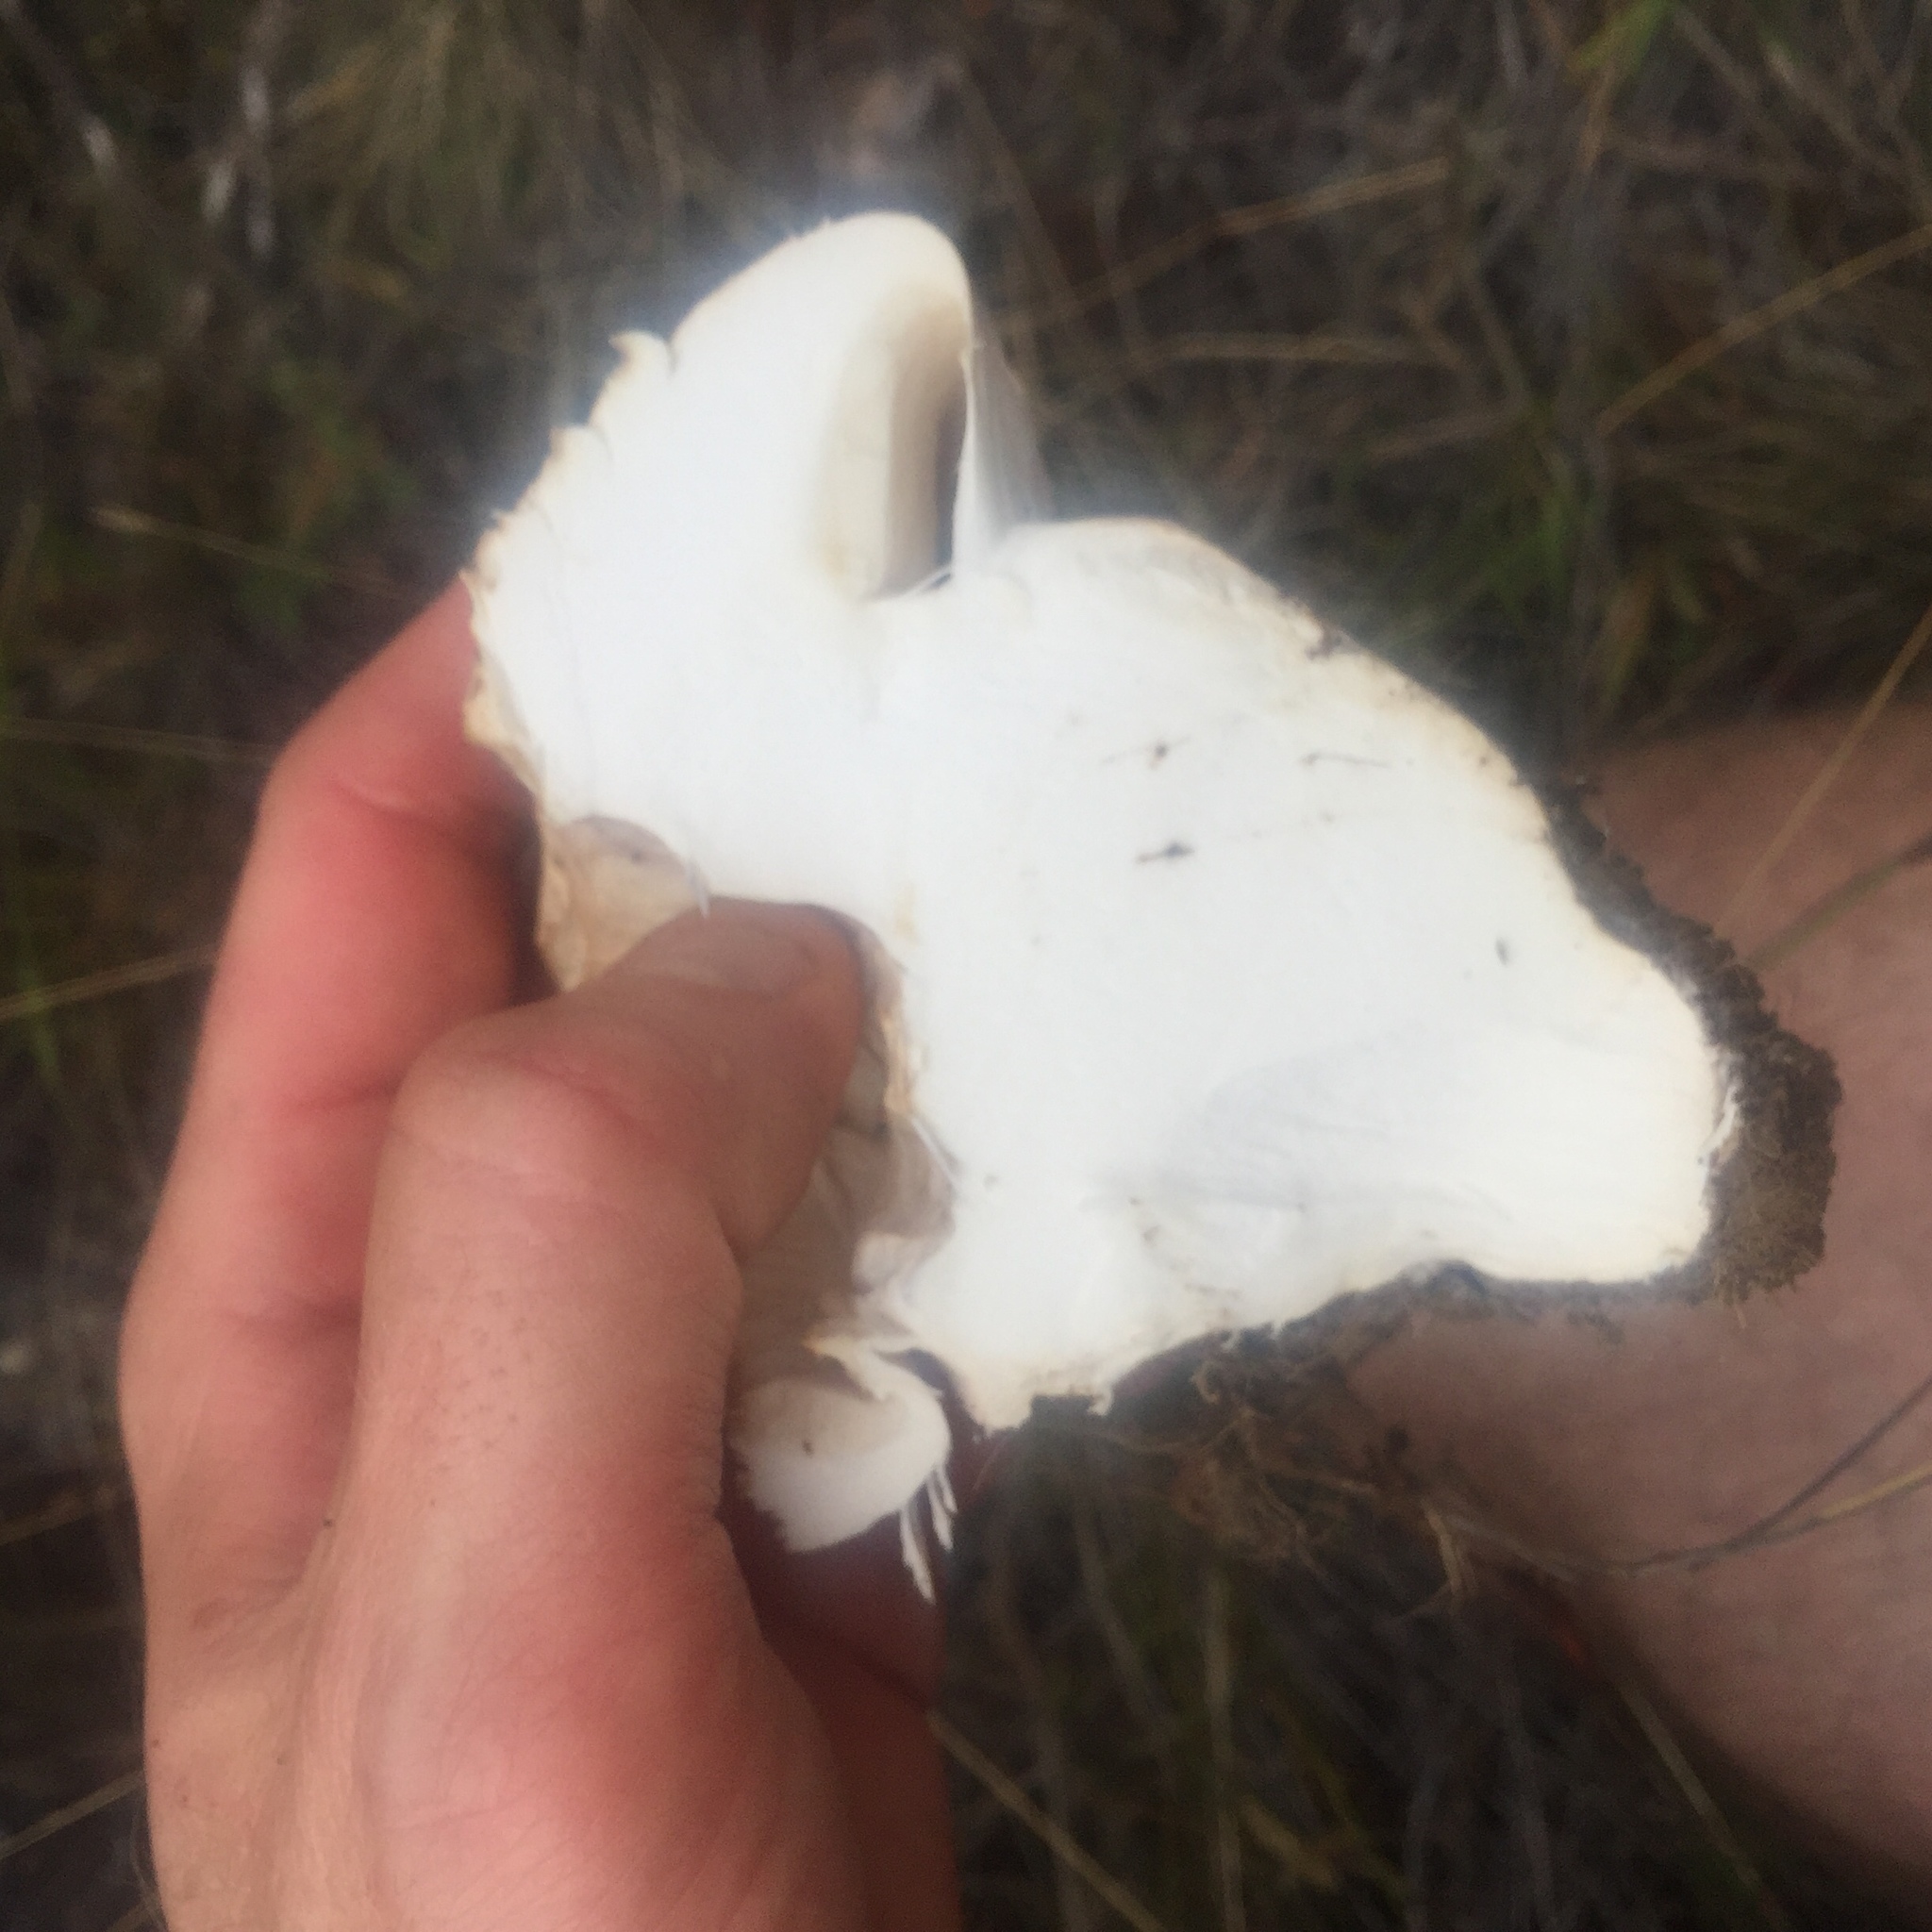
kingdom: Fungi
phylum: Basidiomycota
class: Agaricomycetes
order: Agaricales
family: Cortinariaceae
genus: Austrocortinarius
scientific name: Austrocortinarius australiensis
